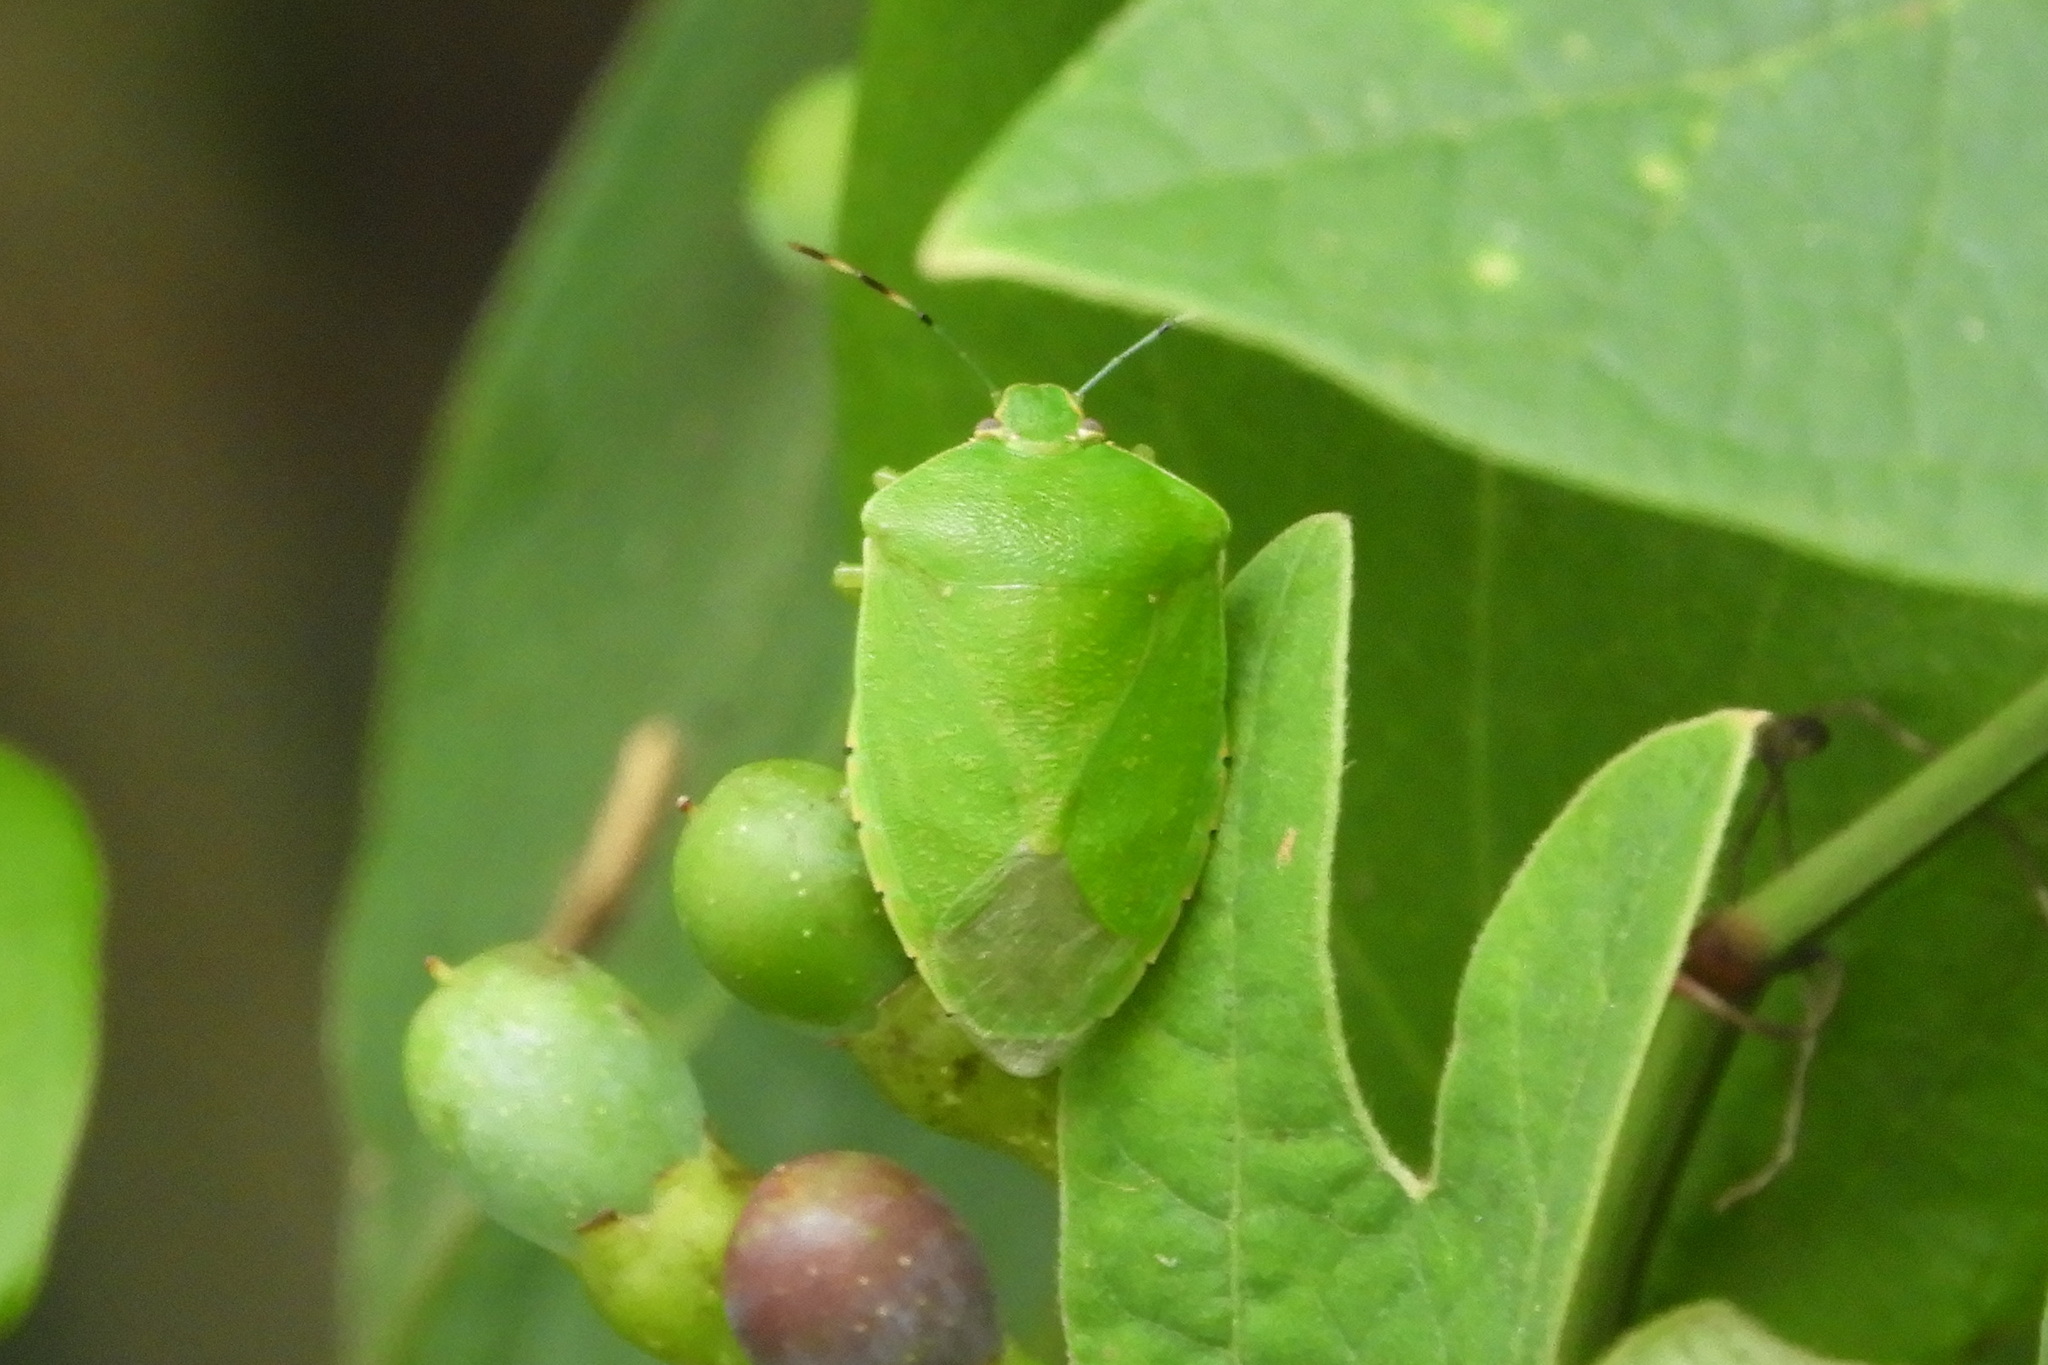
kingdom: Animalia
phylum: Arthropoda
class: Insecta
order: Hemiptera
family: Pentatomidae
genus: Chinavia
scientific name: Chinavia hilaris
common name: Green stink bug
